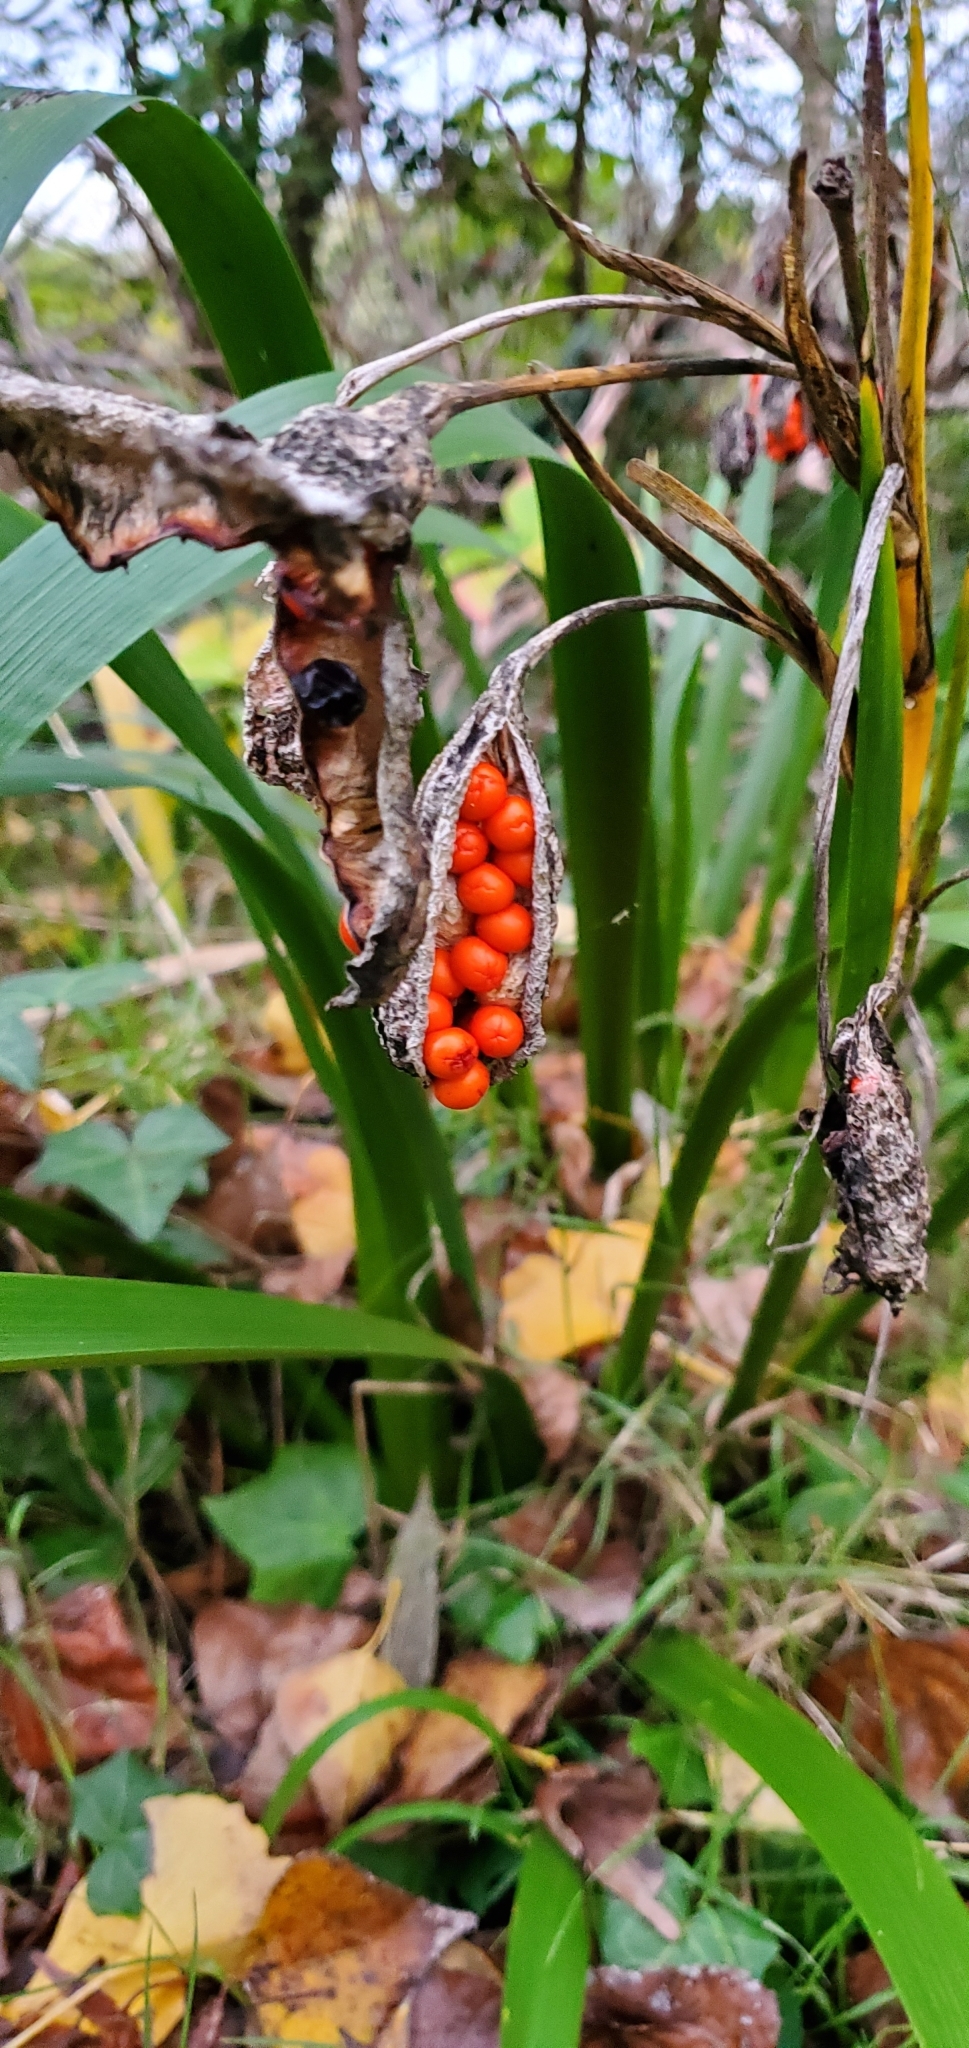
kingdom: Plantae
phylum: Tracheophyta
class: Liliopsida
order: Asparagales
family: Iridaceae
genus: Iris
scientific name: Iris foetidissima
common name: Stinking iris
